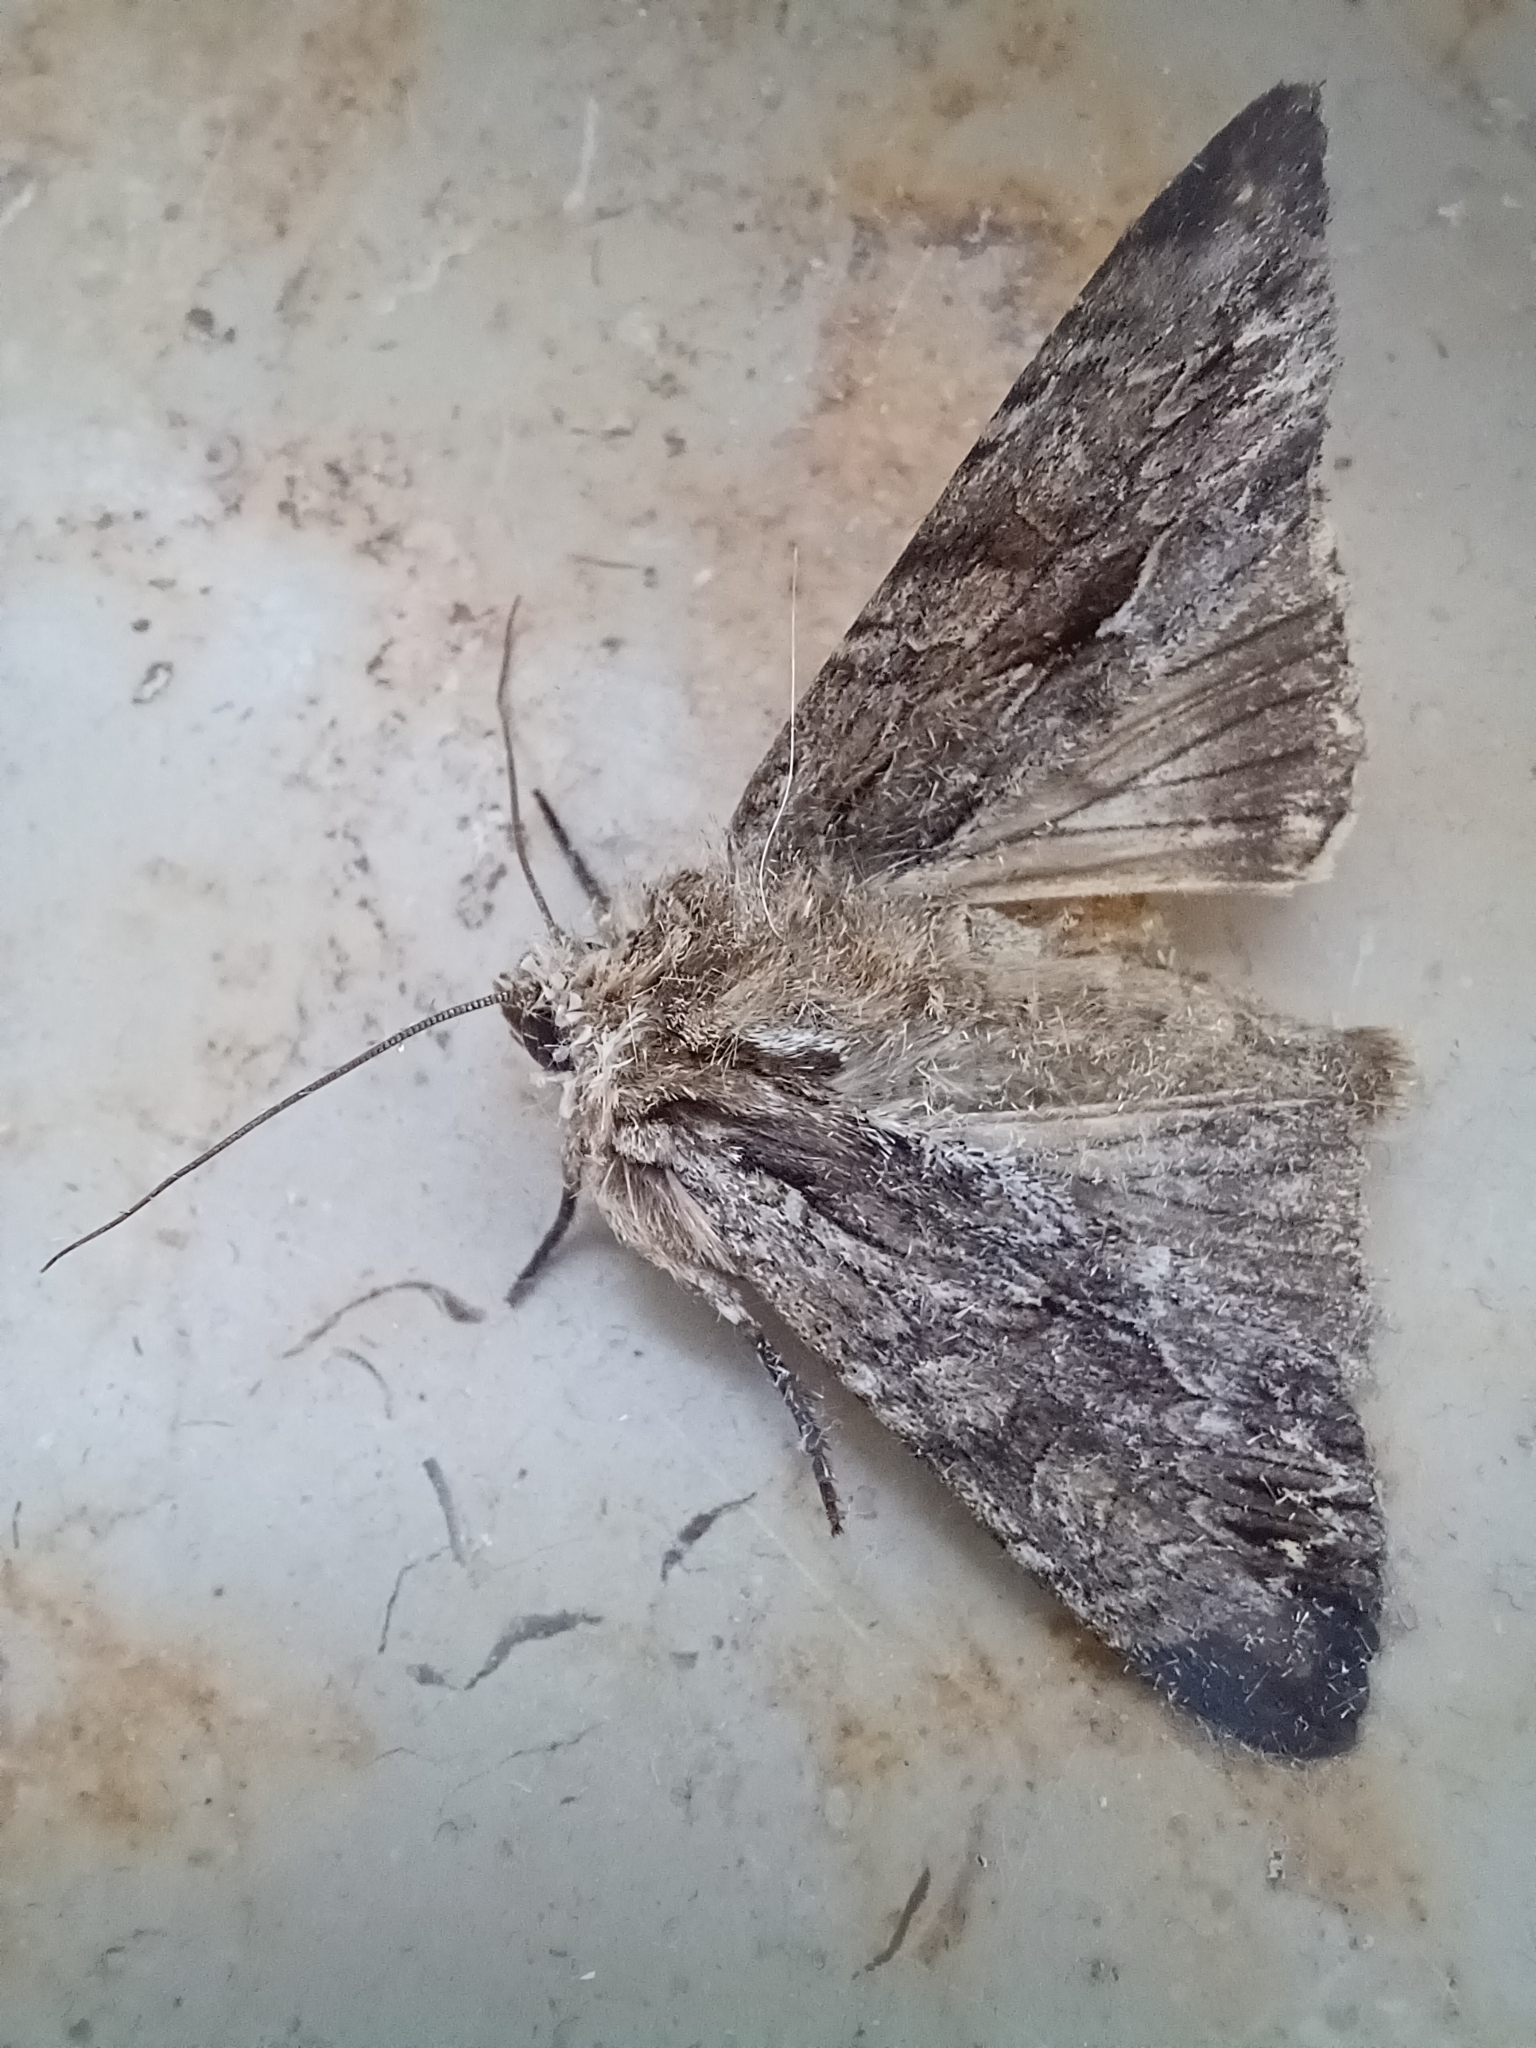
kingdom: Animalia
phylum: Arthropoda
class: Insecta
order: Lepidoptera
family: Noctuidae
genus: Apamea
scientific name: Apamea monoglypha
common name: Dark arches
